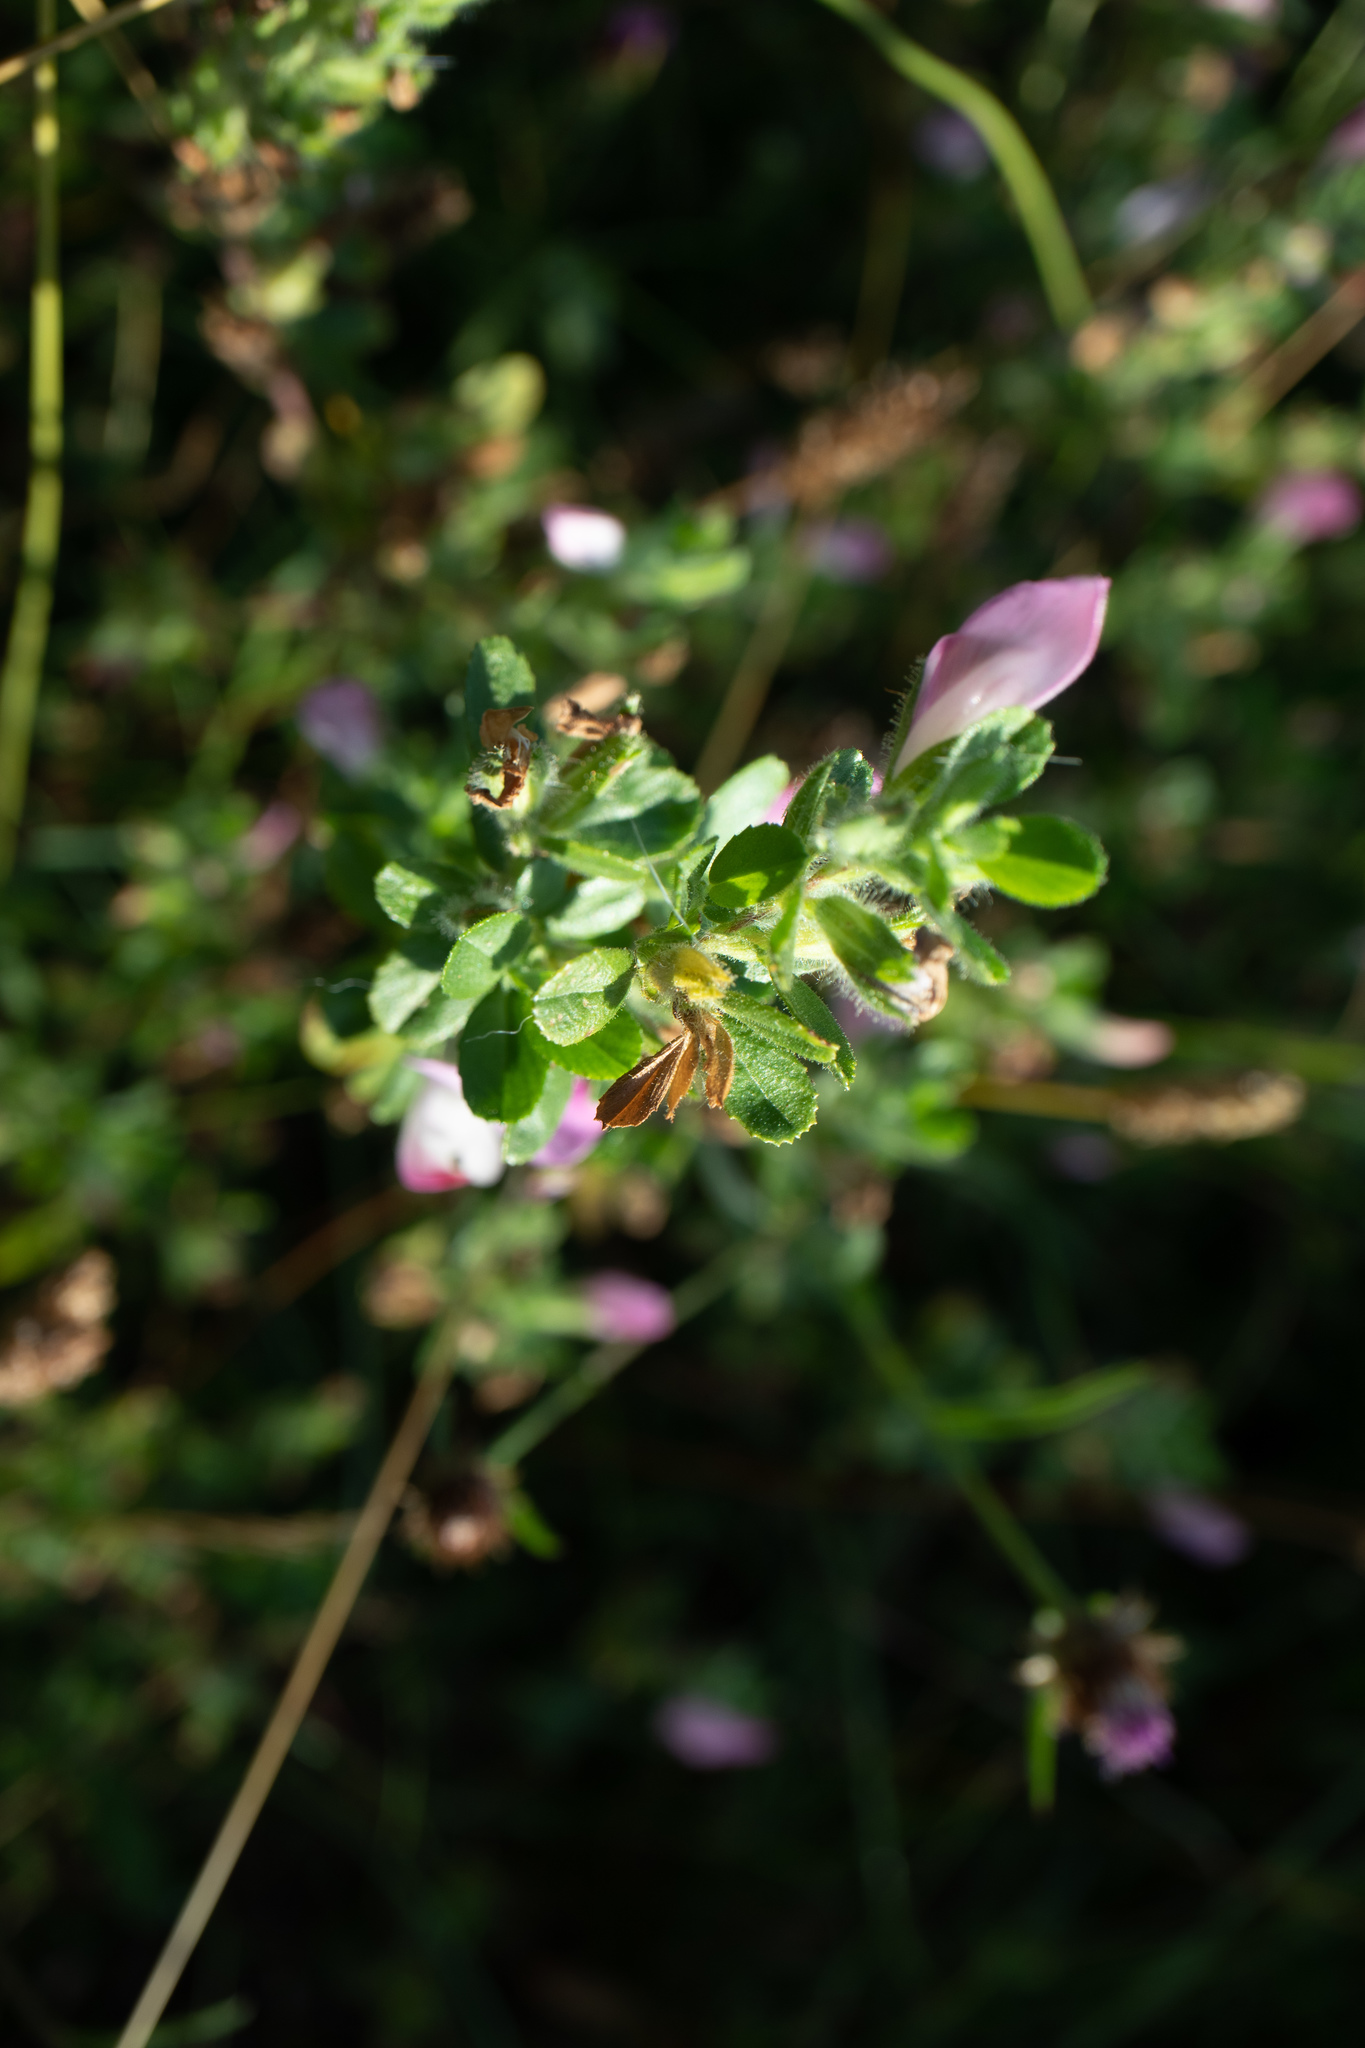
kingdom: Plantae
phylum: Tracheophyta
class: Magnoliopsida
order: Fabales
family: Fabaceae
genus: Ononis
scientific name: Ononis spinosa
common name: Spiny restharrow
